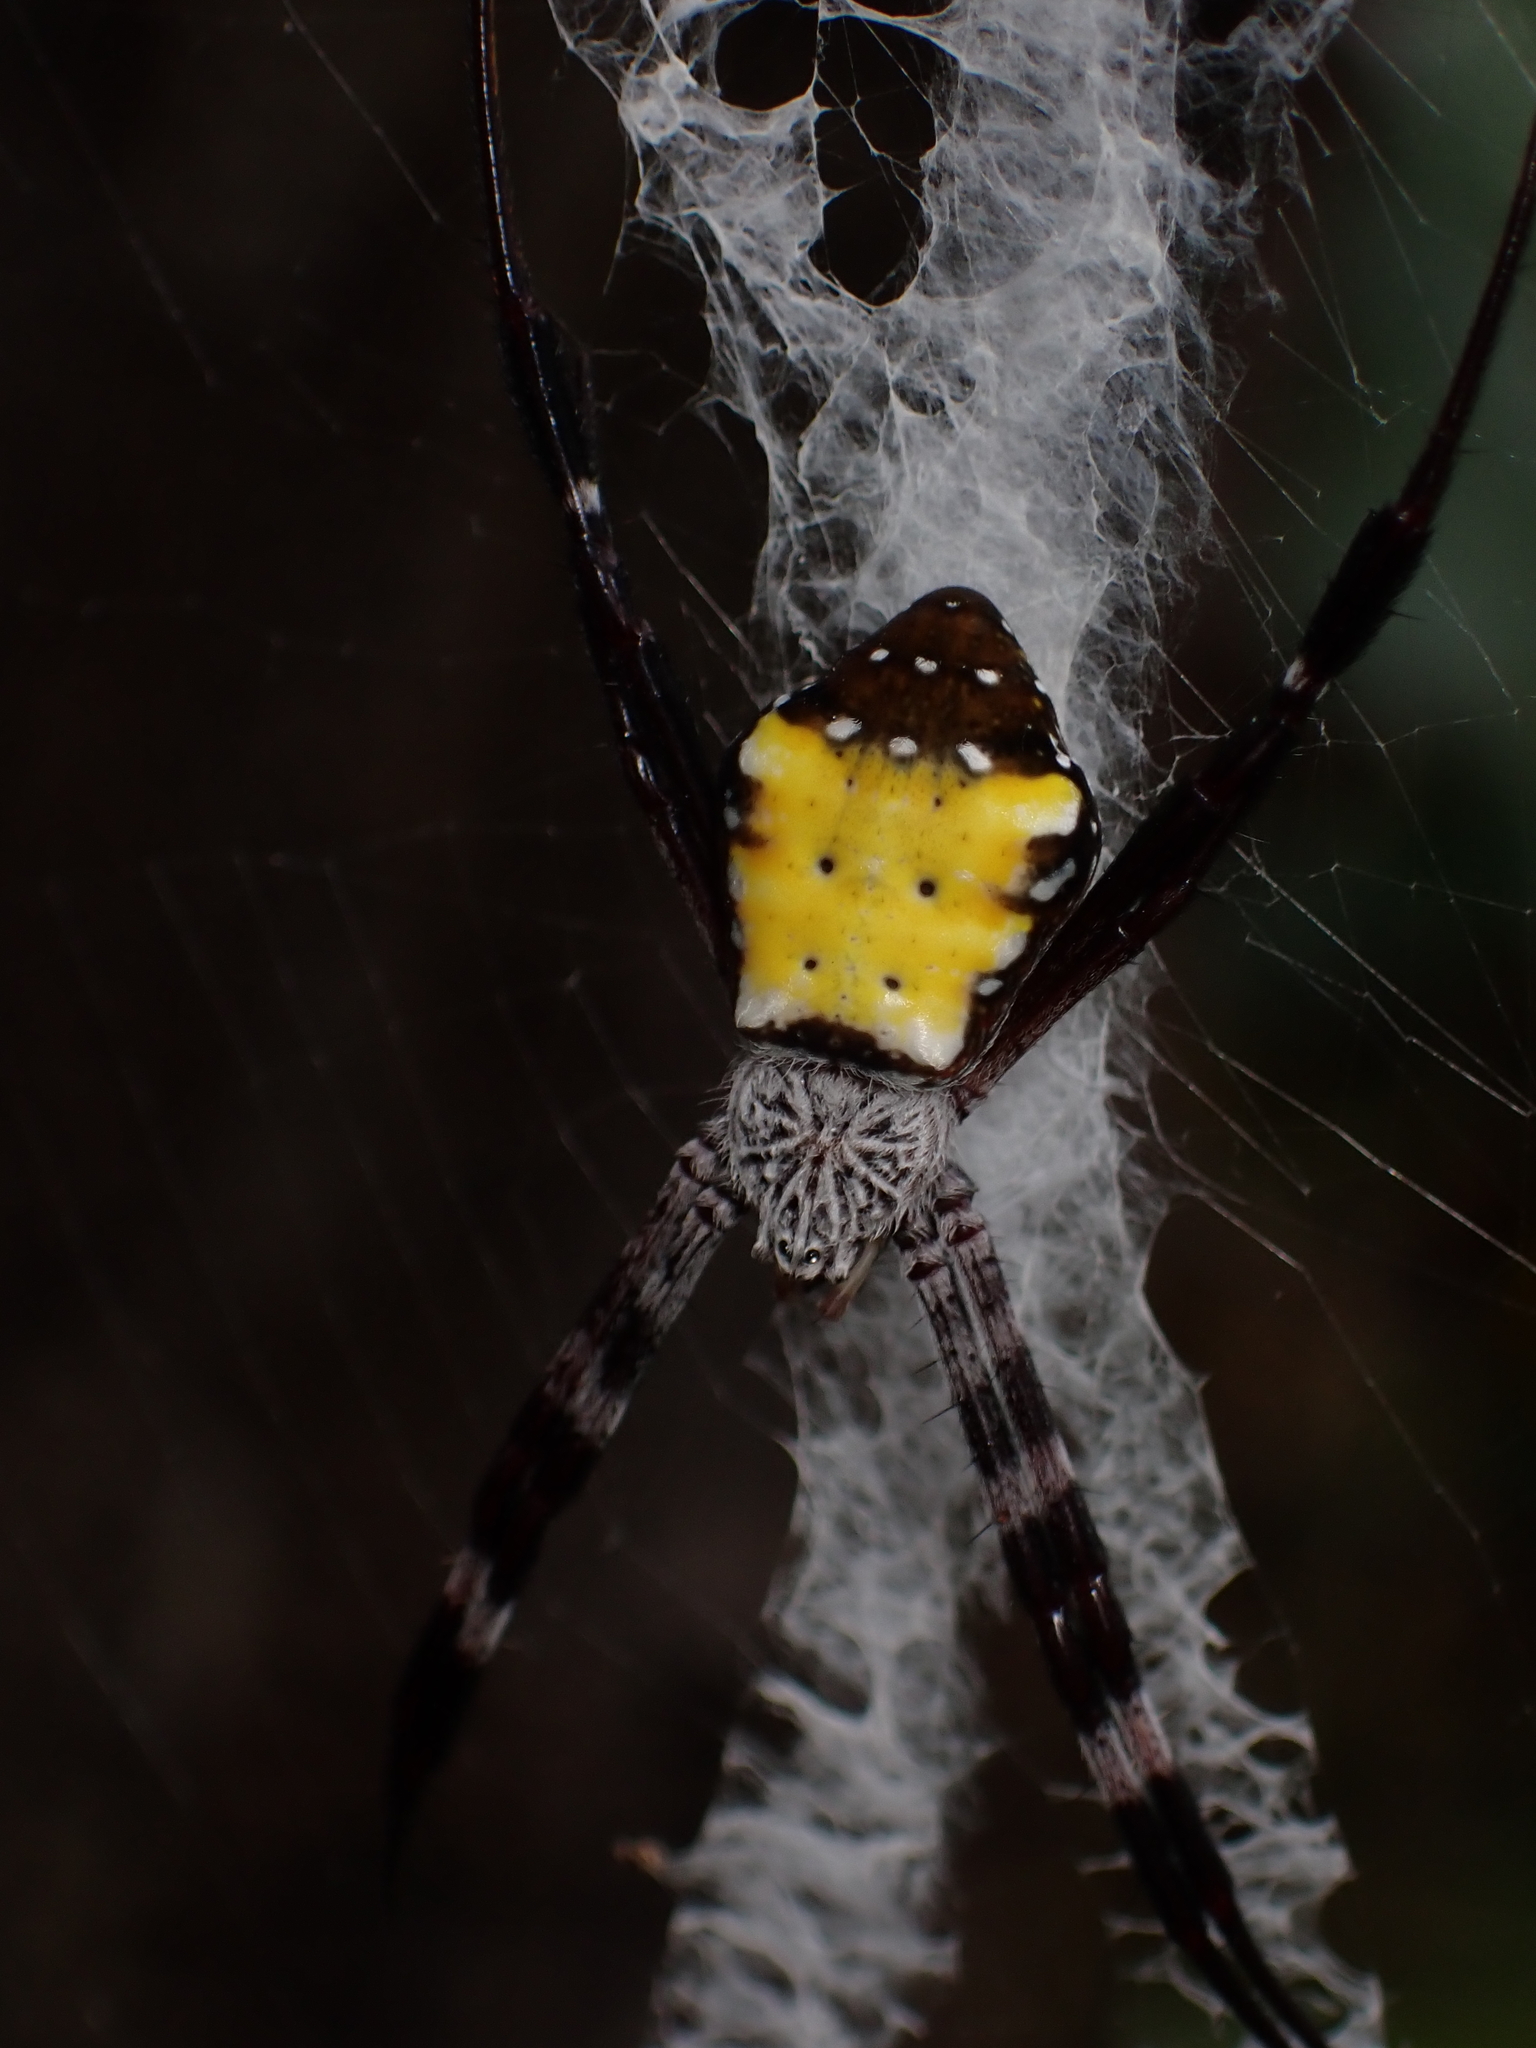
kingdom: Animalia
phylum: Arthropoda
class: Arachnida
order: Araneae
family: Araneidae
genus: Argiope
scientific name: Argiope aetherea
